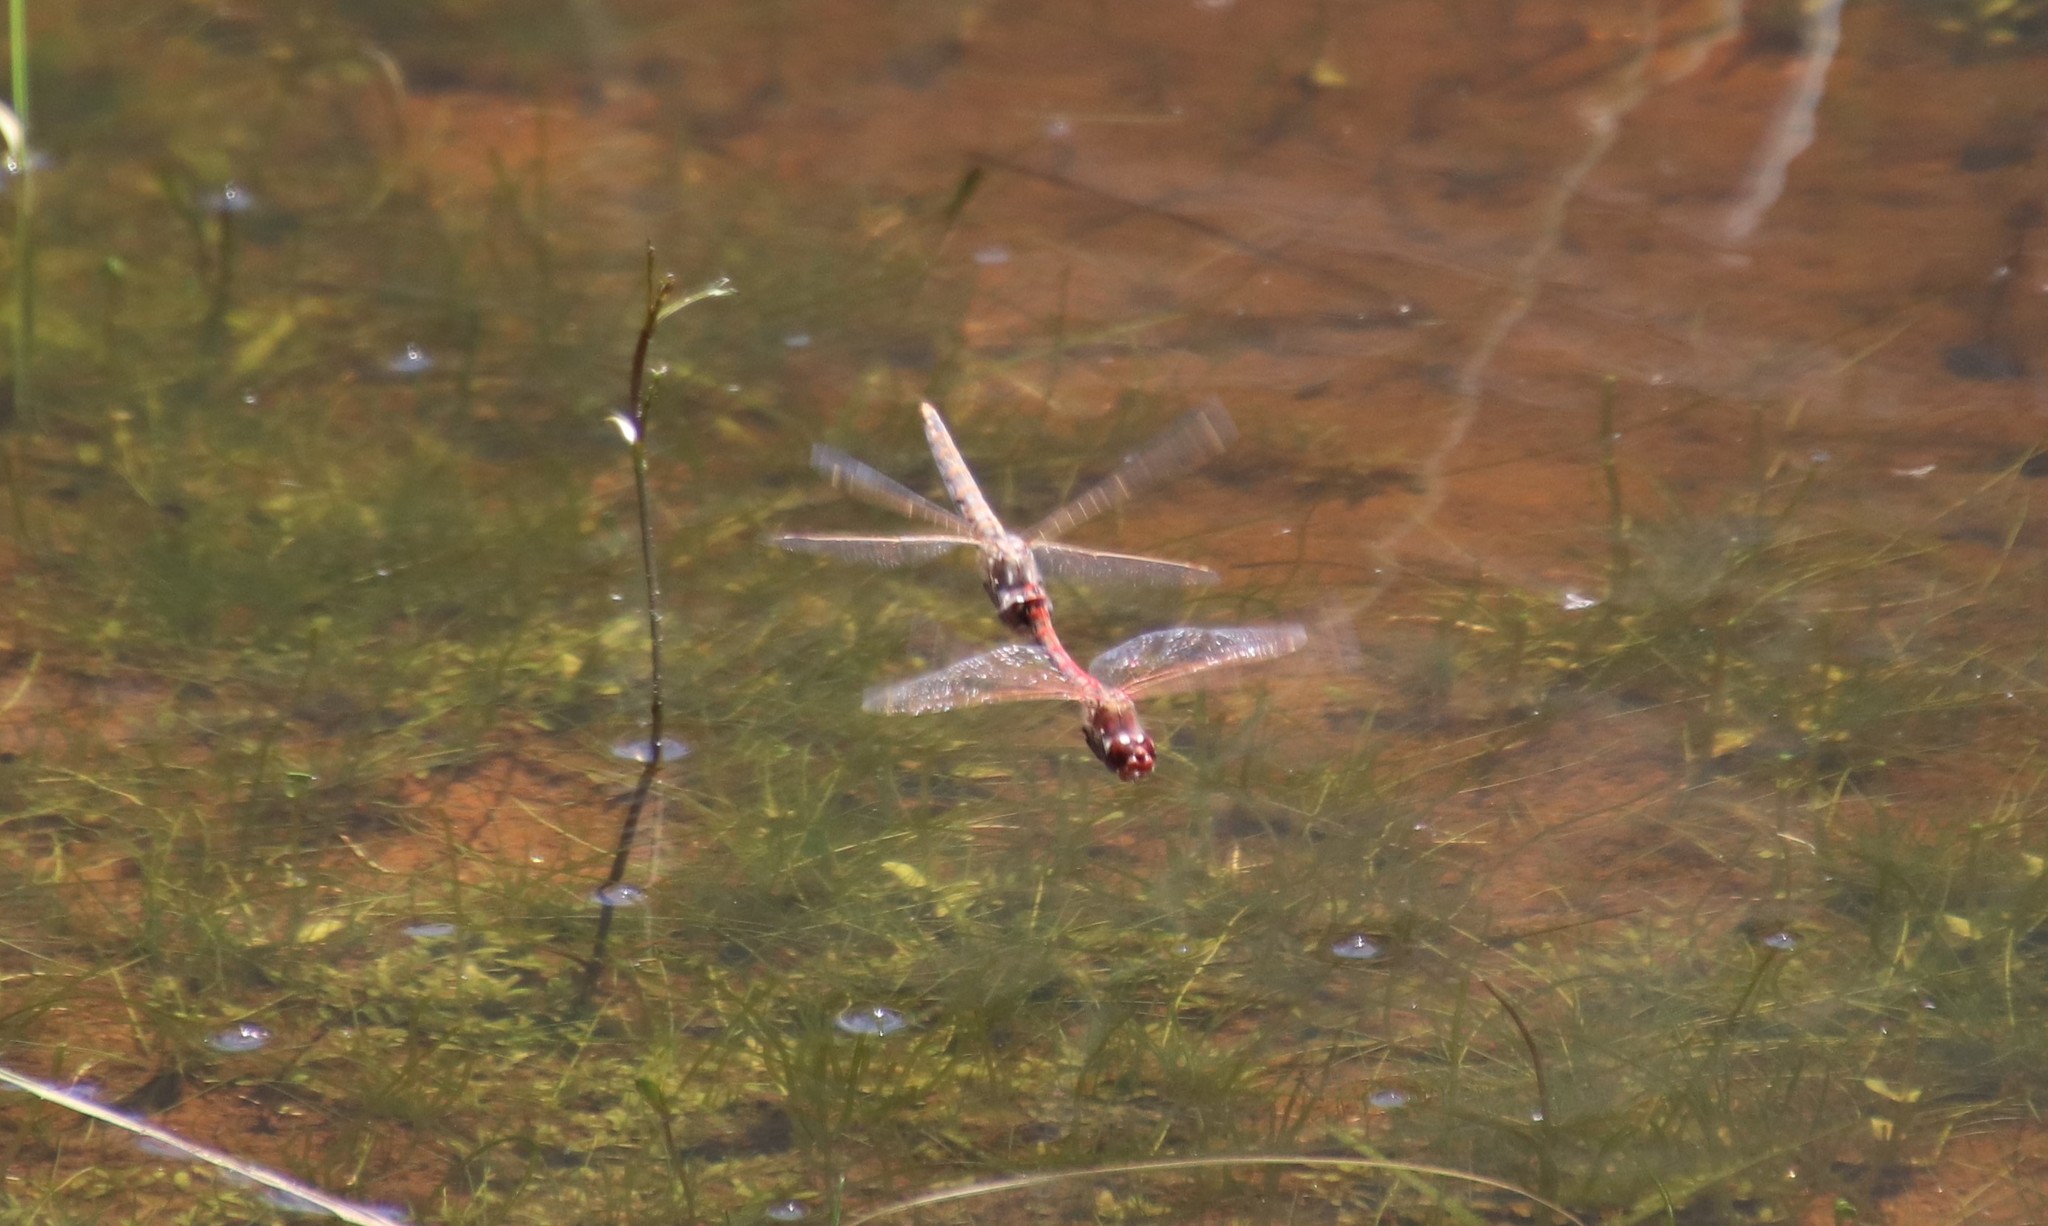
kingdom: Animalia
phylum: Arthropoda
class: Insecta
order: Odonata
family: Libellulidae
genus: Sympetrum
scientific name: Sympetrum corruptum
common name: Variegated meadowhawk
